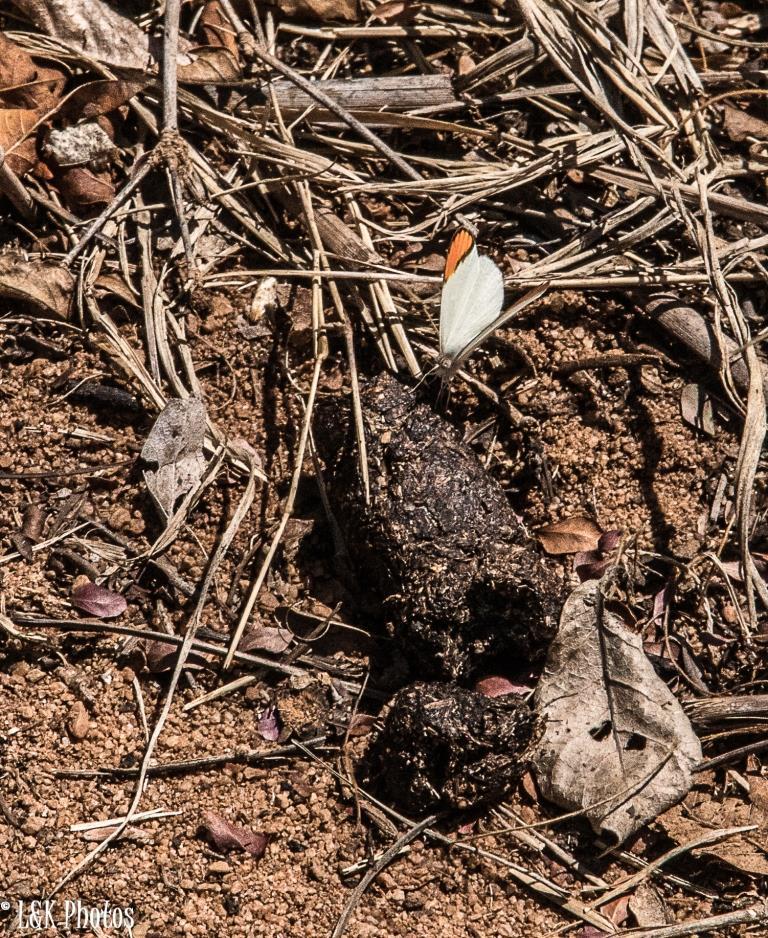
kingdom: Animalia
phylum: Arthropoda
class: Insecta
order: Lepidoptera
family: Pieridae
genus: Colotis
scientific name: Colotis evanthe
